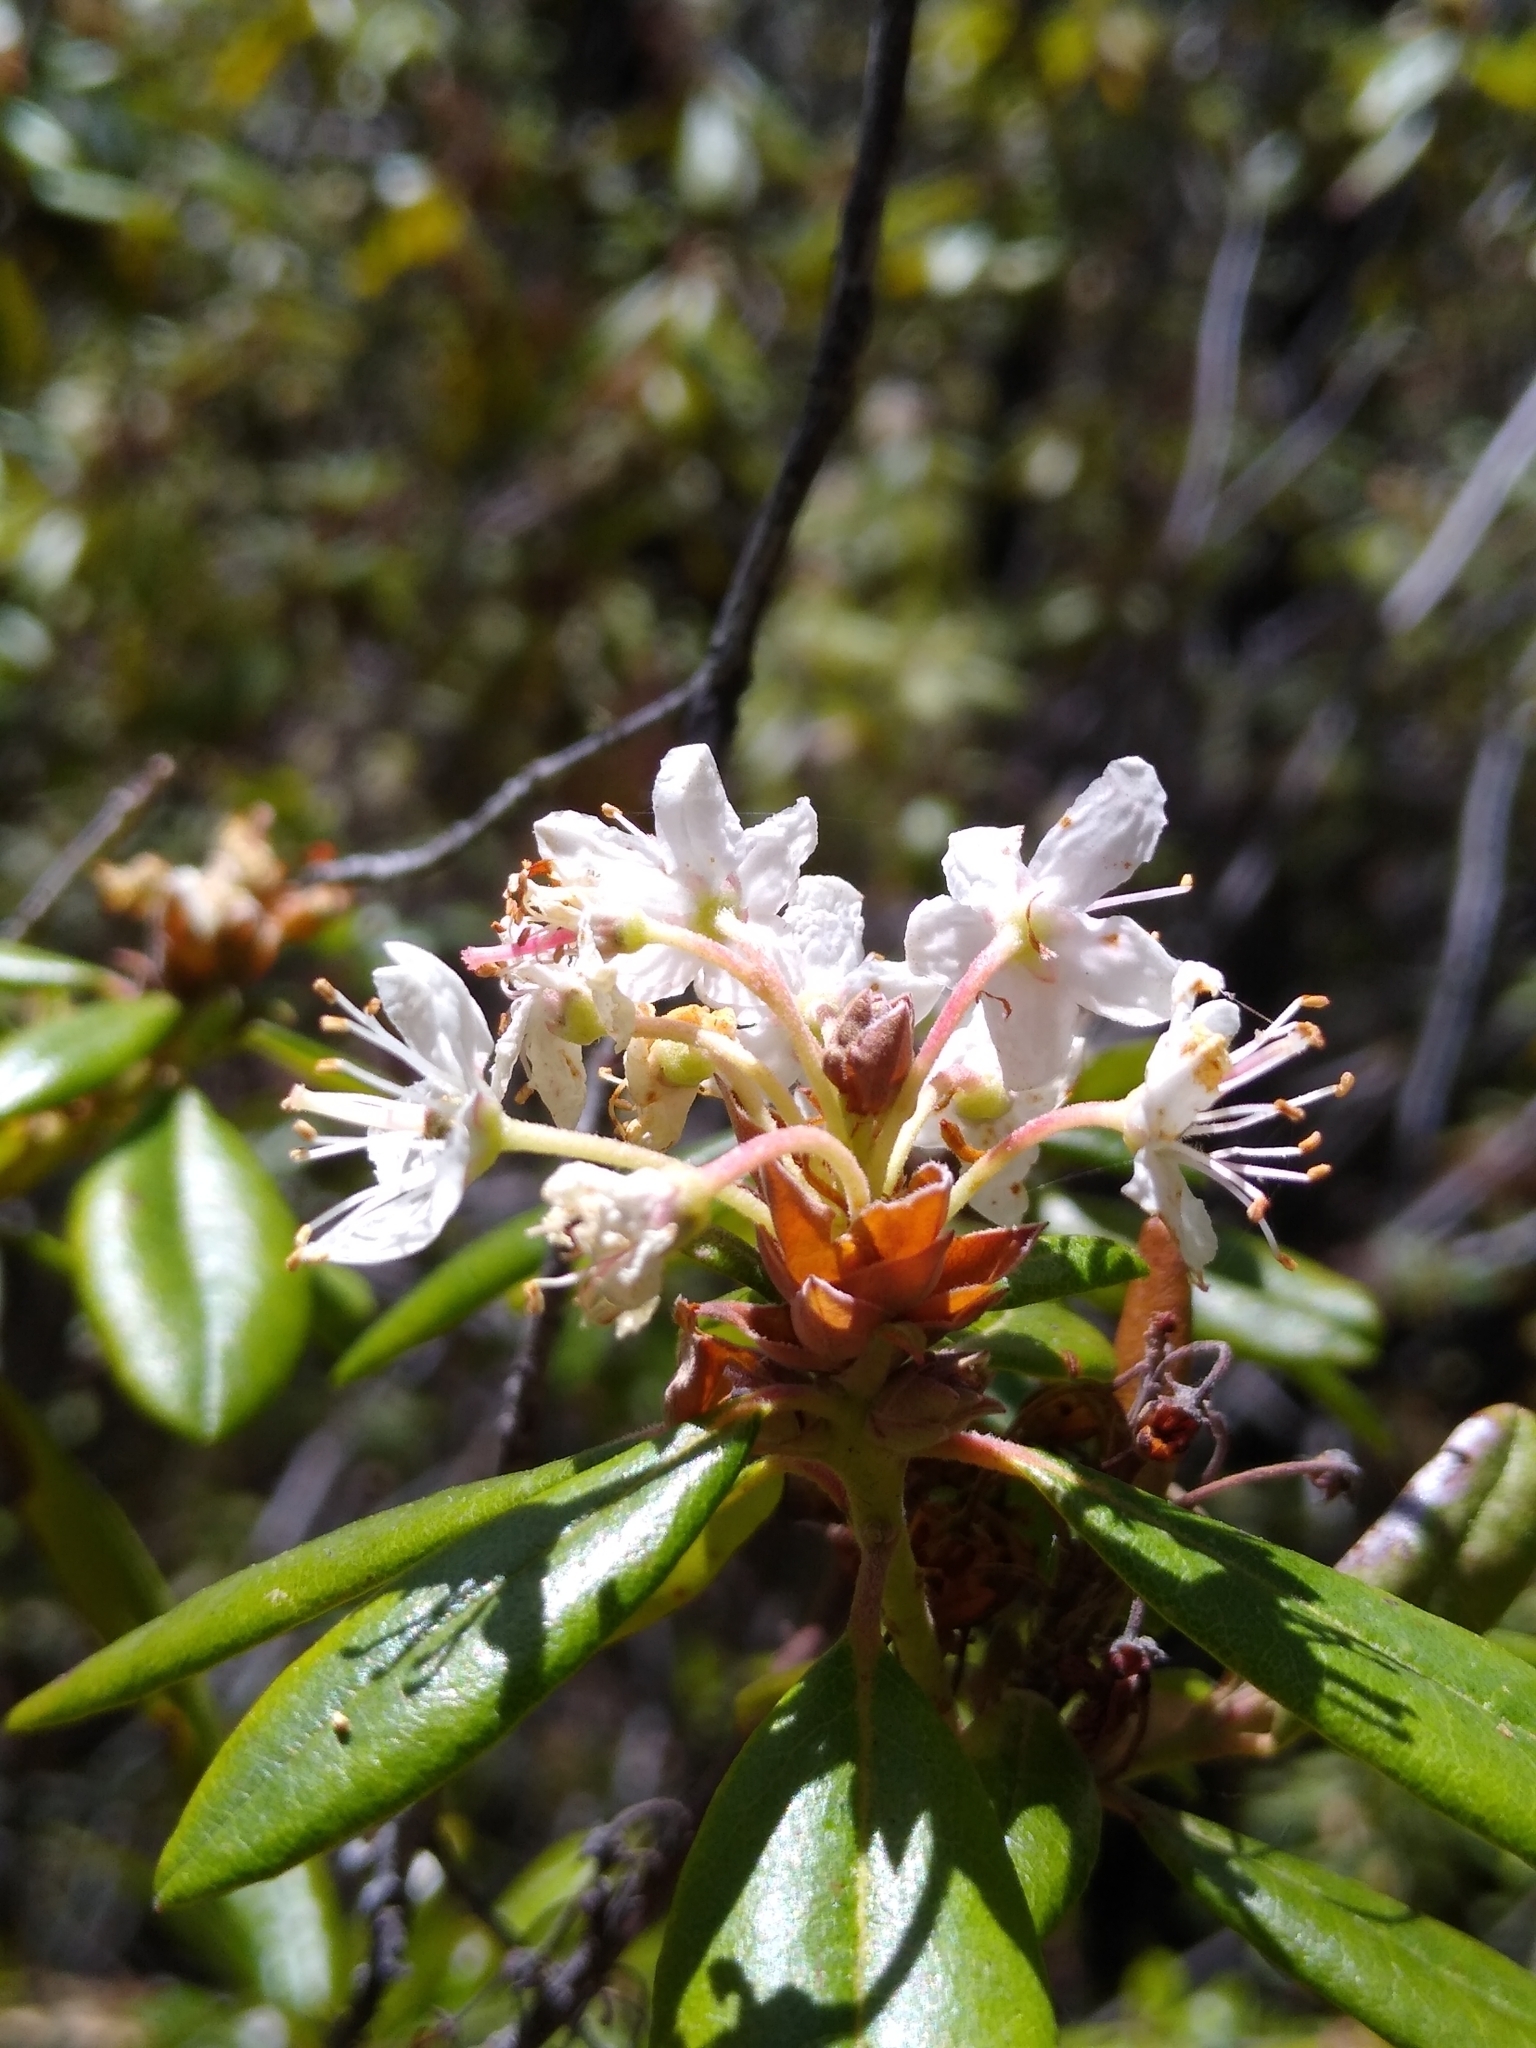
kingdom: Plantae
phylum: Tracheophyta
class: Magnoliopsida
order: Ericales
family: Ericaceae
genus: Rhododendron
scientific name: Rhododendron columbianum
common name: Western labrador tea
